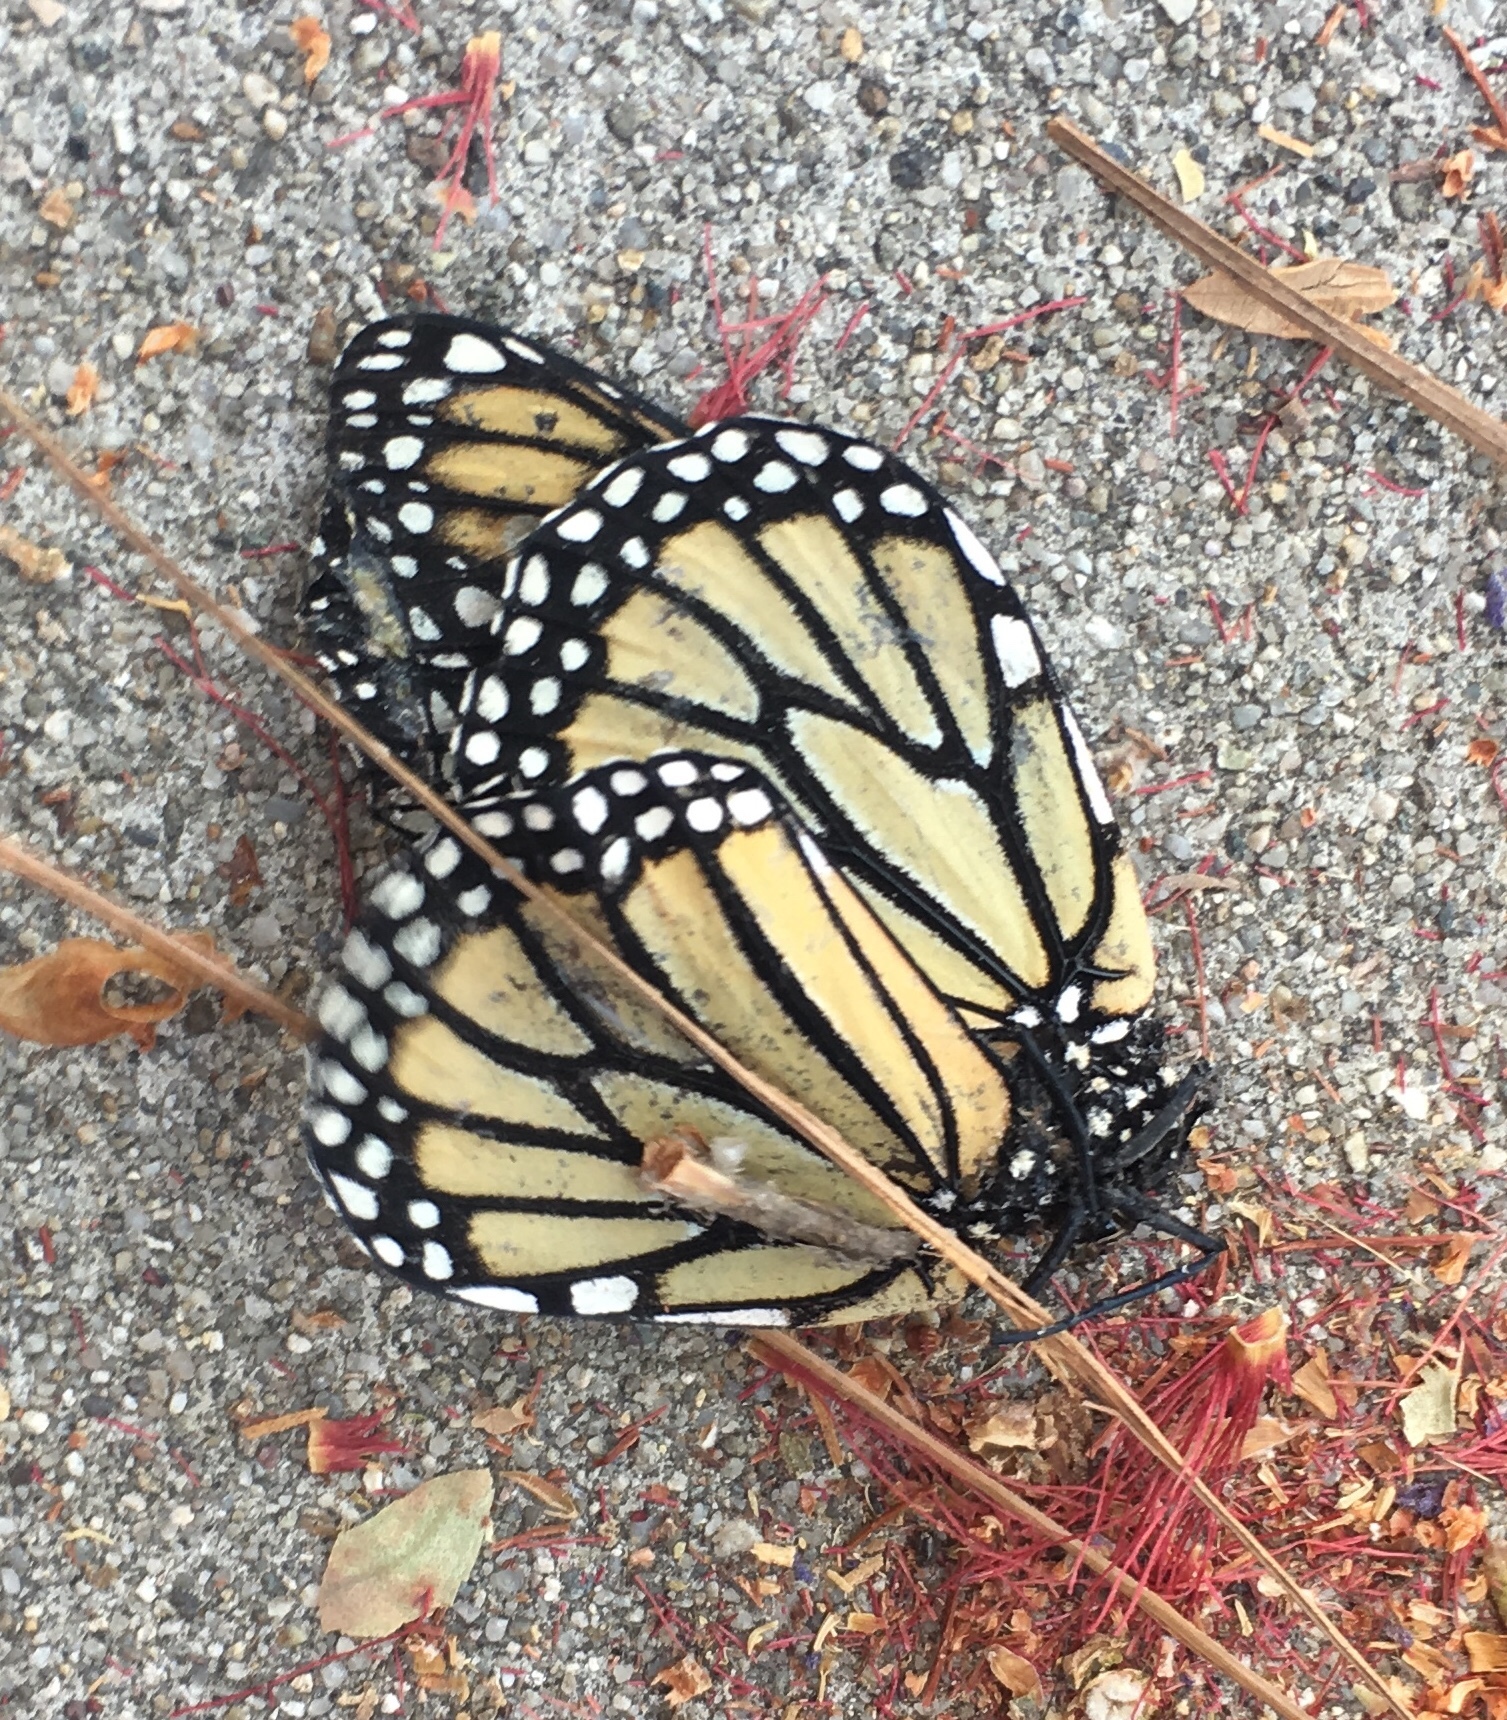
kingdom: Animalia
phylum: Arthropoda
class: Insecta
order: Lepidoptera
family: Nymphalidae
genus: Danaus
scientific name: Danaus plexippus
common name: Monarch
